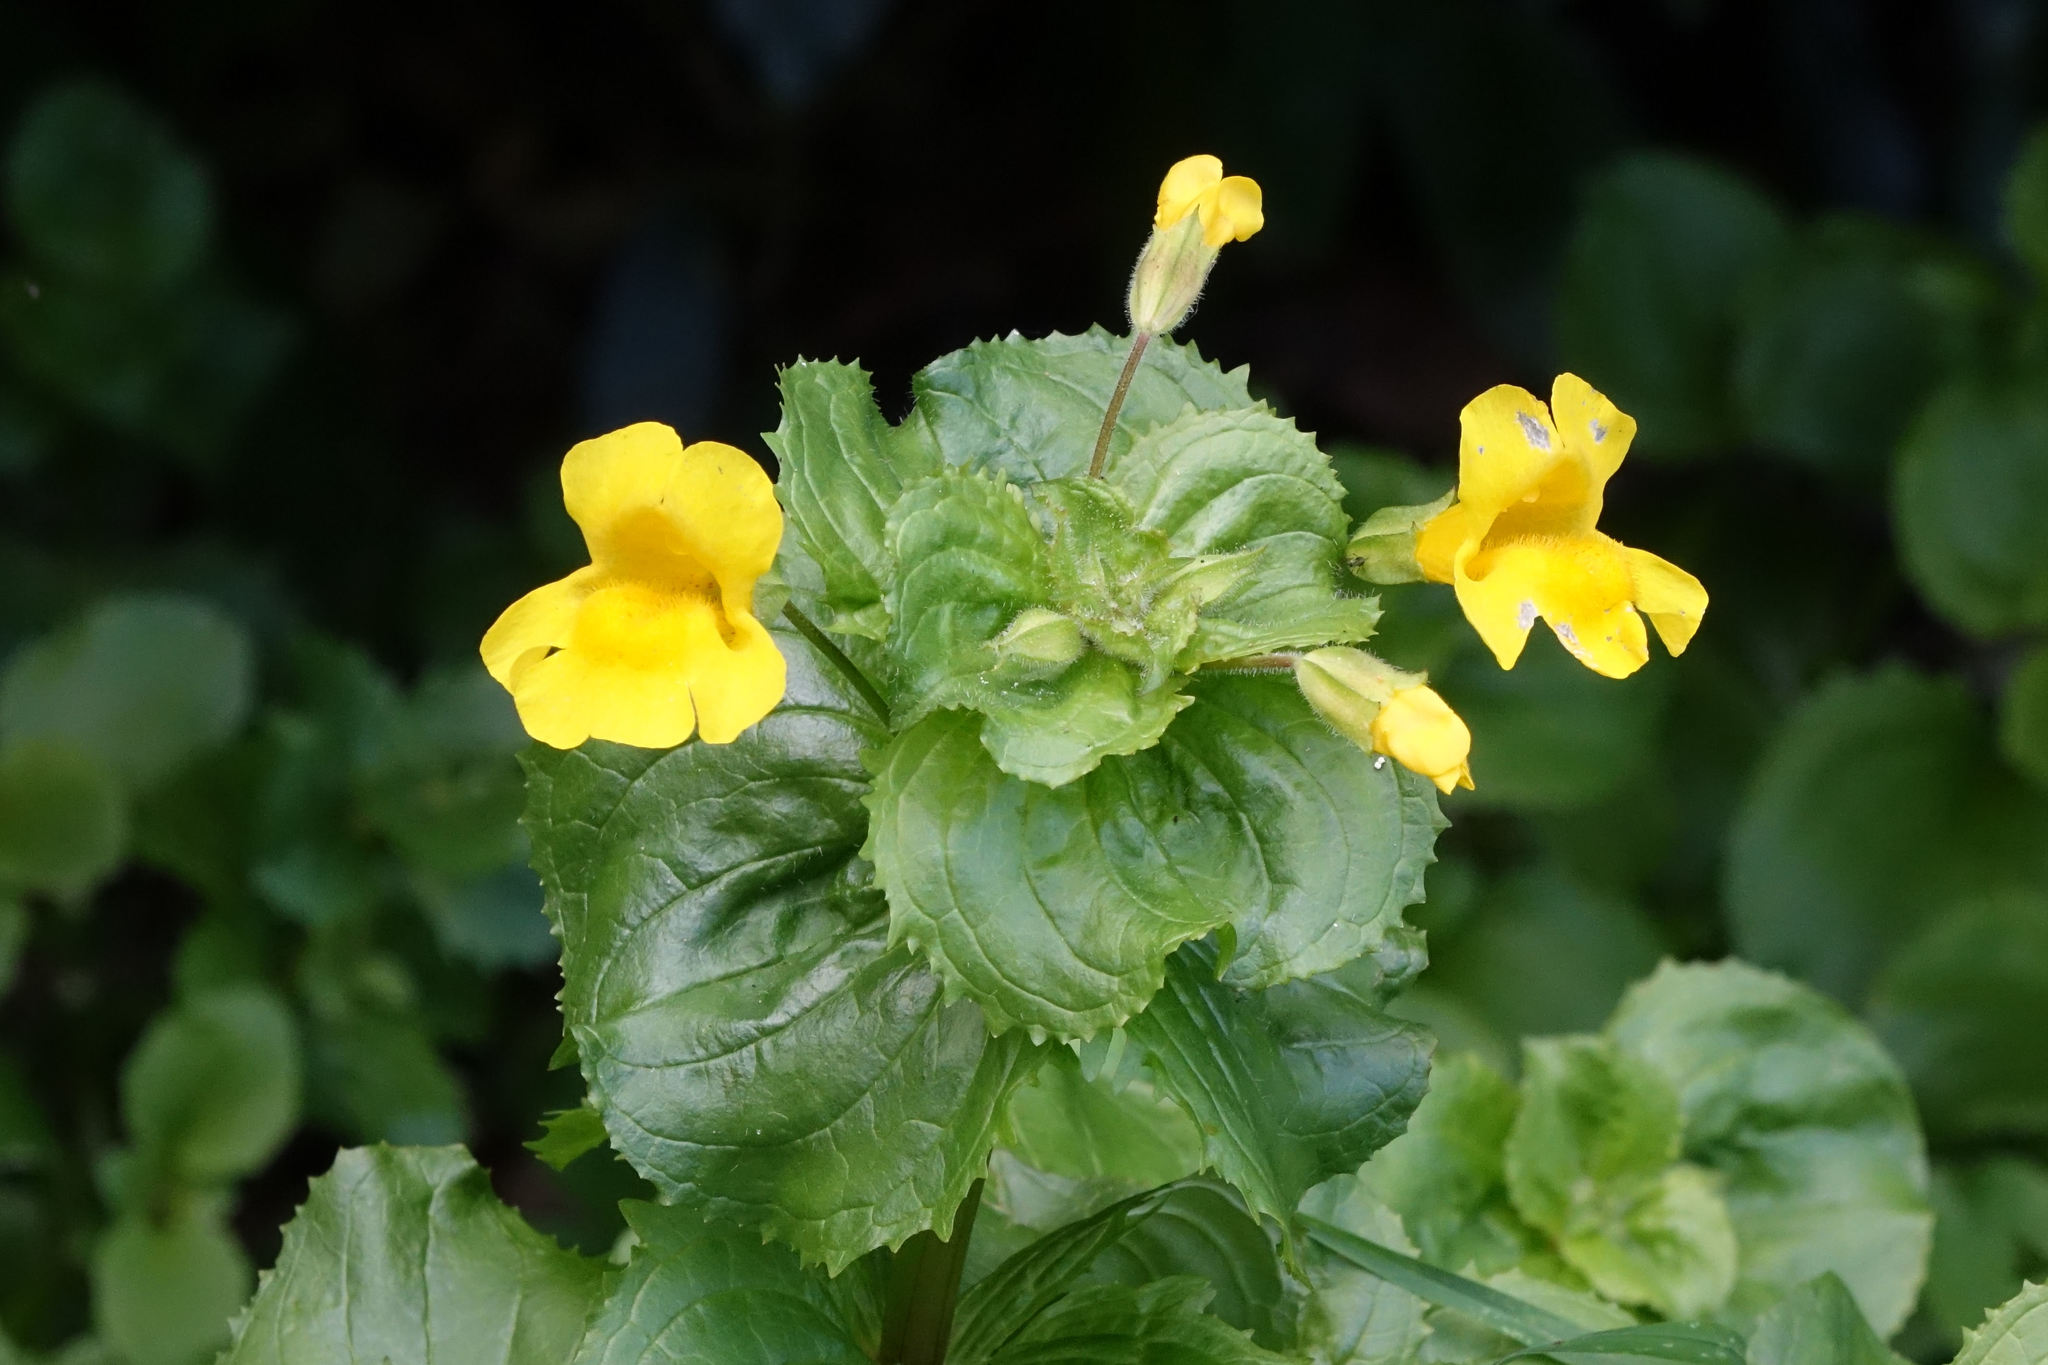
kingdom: Plantae
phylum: Tracheophyta
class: Magnoliopsida
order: Lamiales
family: Phrymaceae
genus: Erythranthe
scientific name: Erythranthe guttata
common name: Monkeyflower
